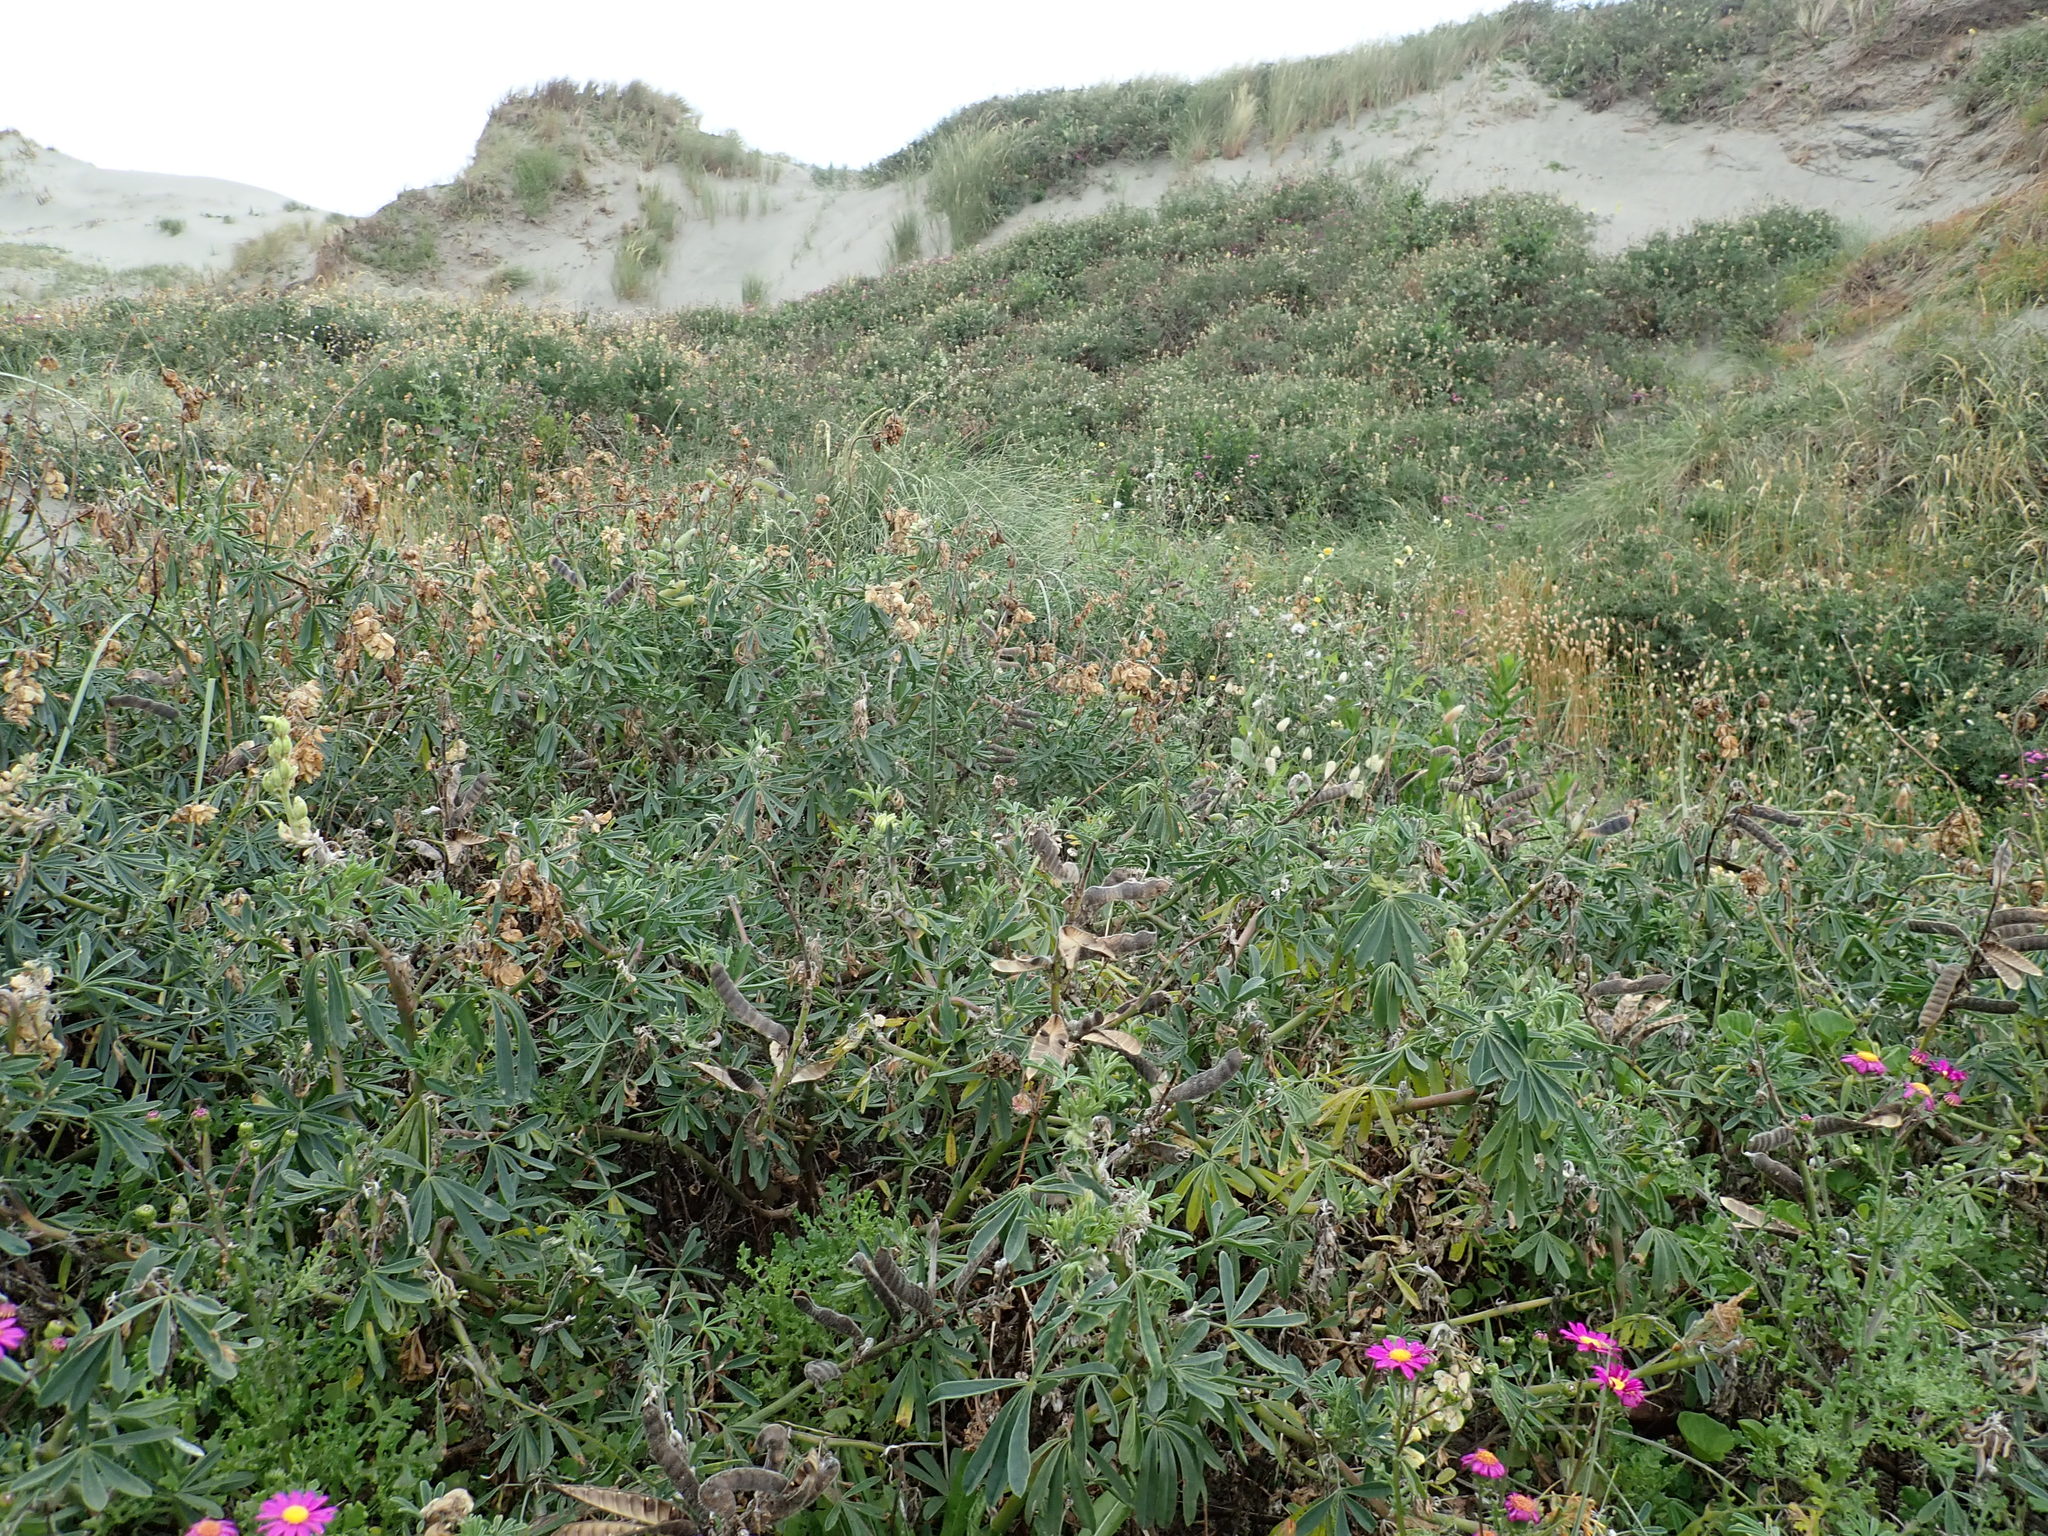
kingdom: Plantae
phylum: Tracheophyta
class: Magnoliopsida
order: Fabales
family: Fabaceae
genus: Lupinus
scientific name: Lupinus arboreus
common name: Yellow bush lupine
